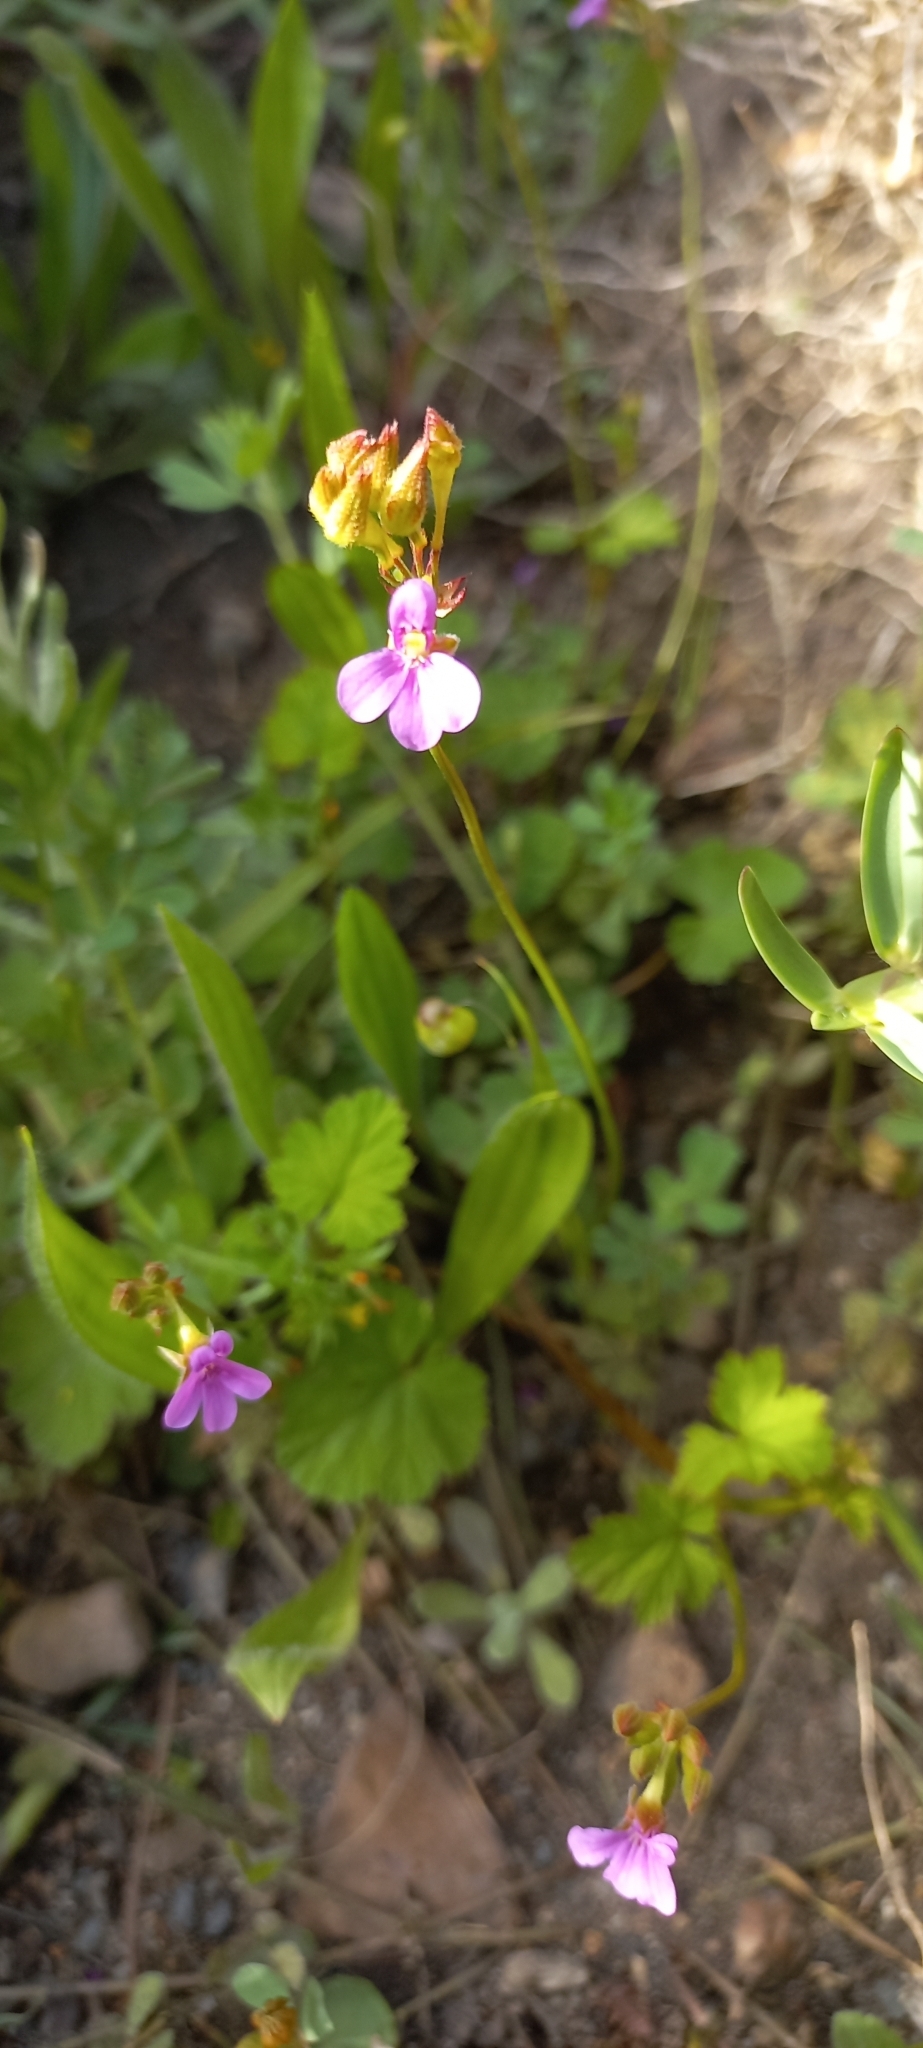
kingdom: Plantae
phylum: Tracheophyta
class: Magnoliopsida
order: Geraniales
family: Geraniaceae
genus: Pelargonium
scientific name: Pelargonium grossularioides
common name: Gooseberry geranium
